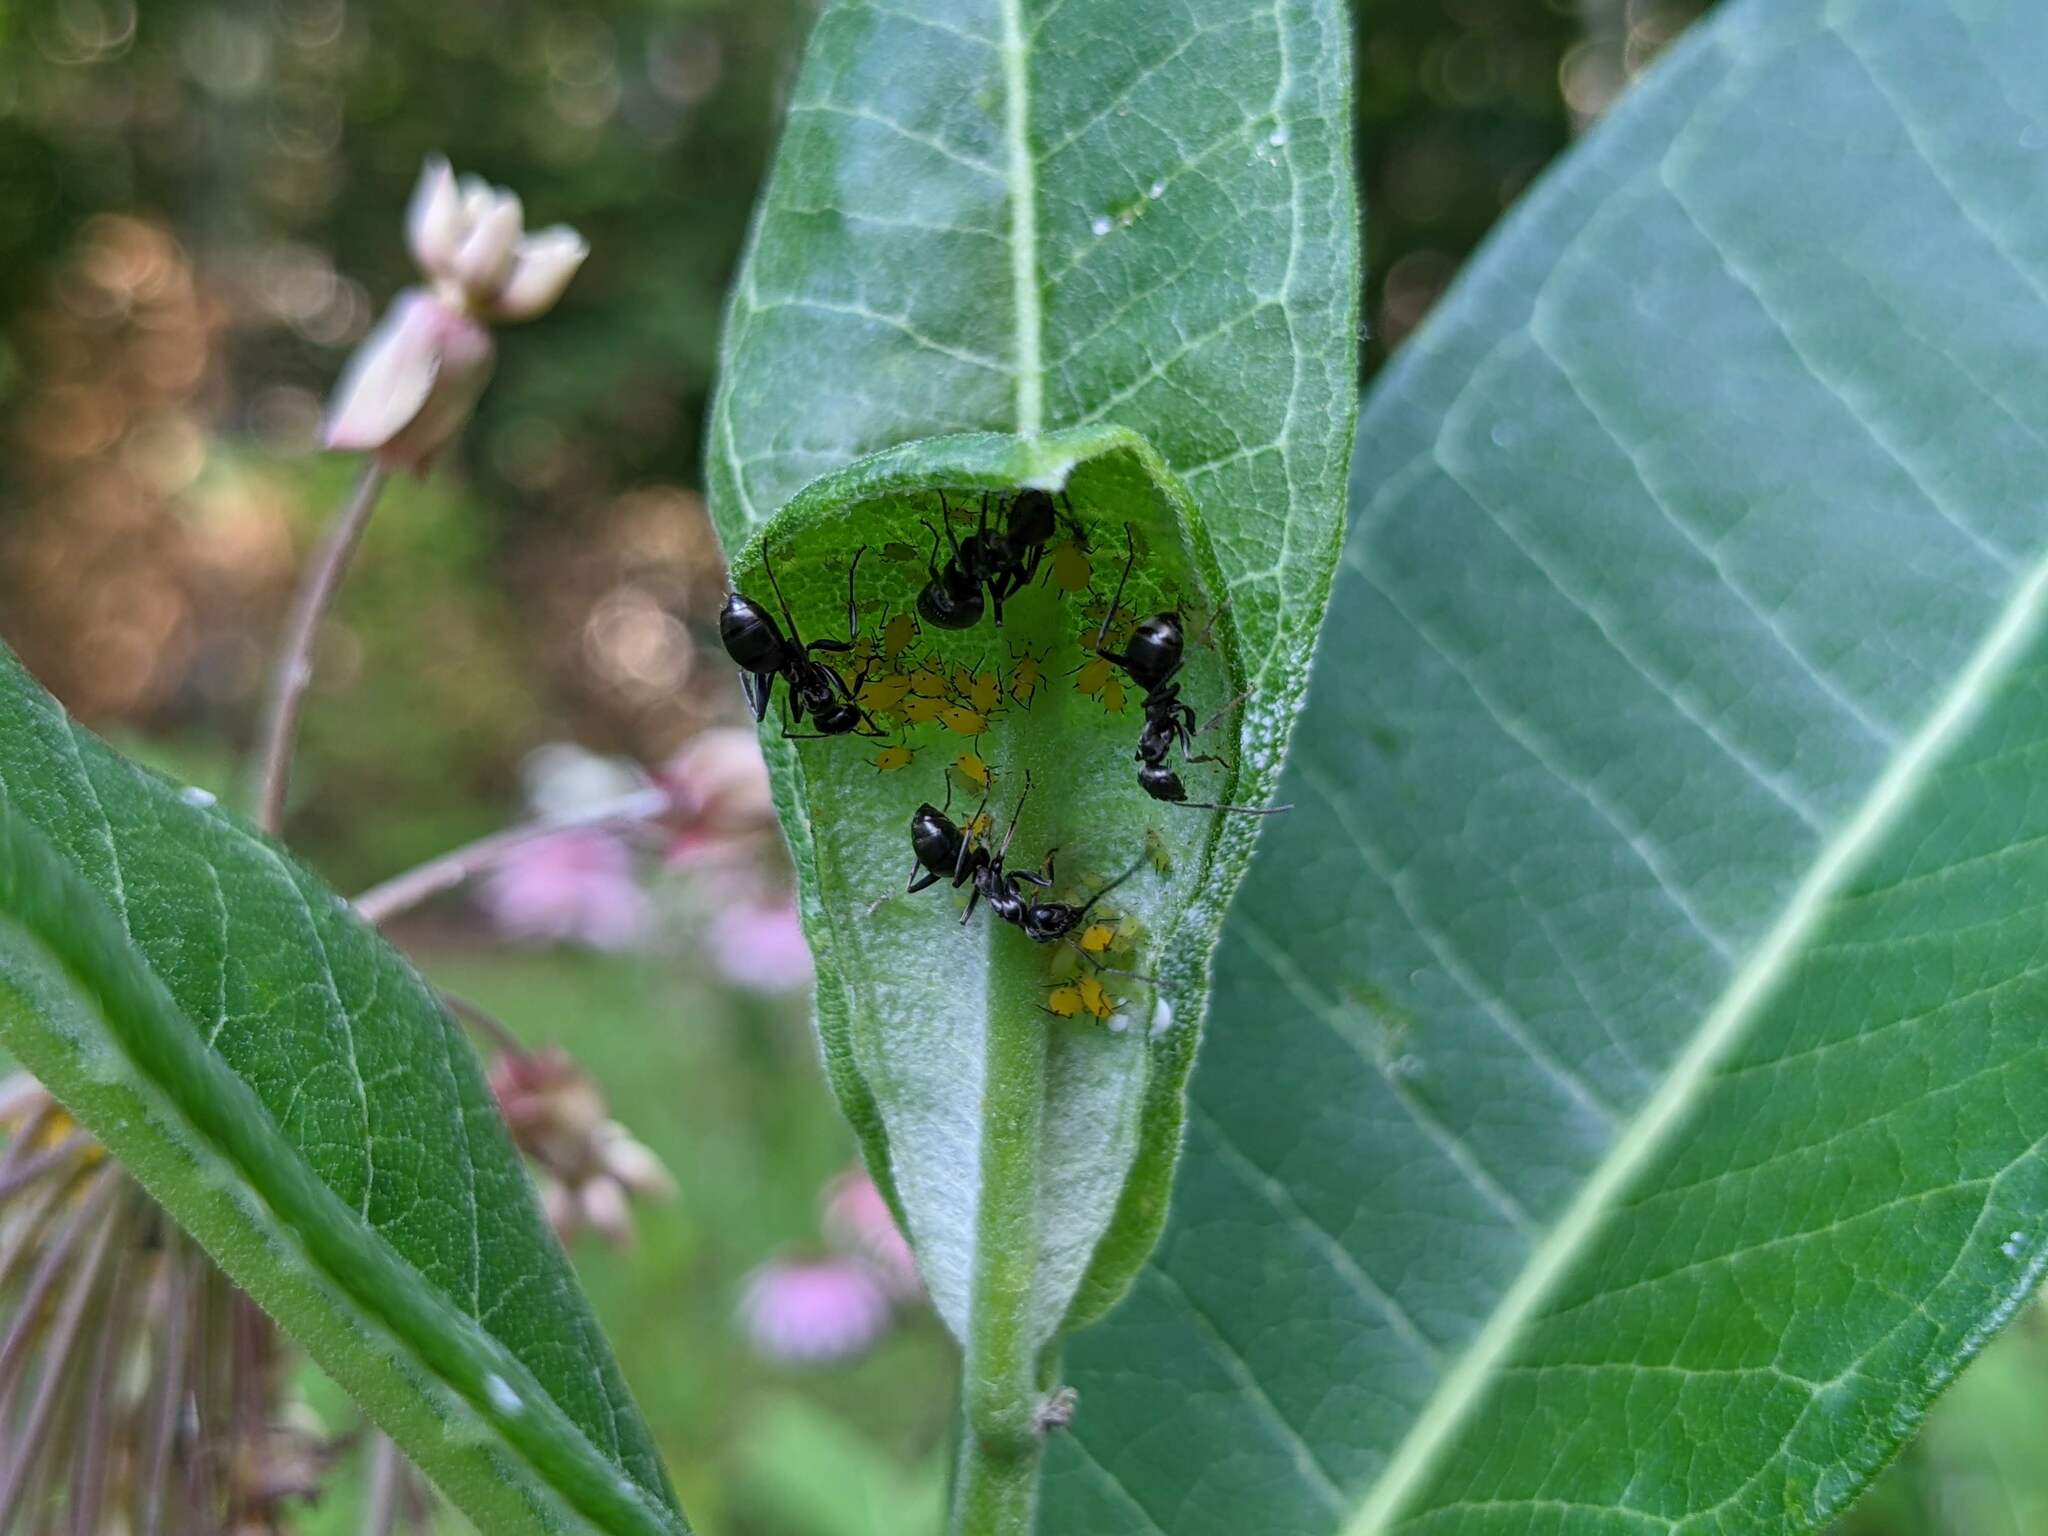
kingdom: Animalia
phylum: Arthropoda
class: Insecta
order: Hemiptera
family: Aphididae
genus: Aphis
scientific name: Aphis nerii
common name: Oleander aphid
